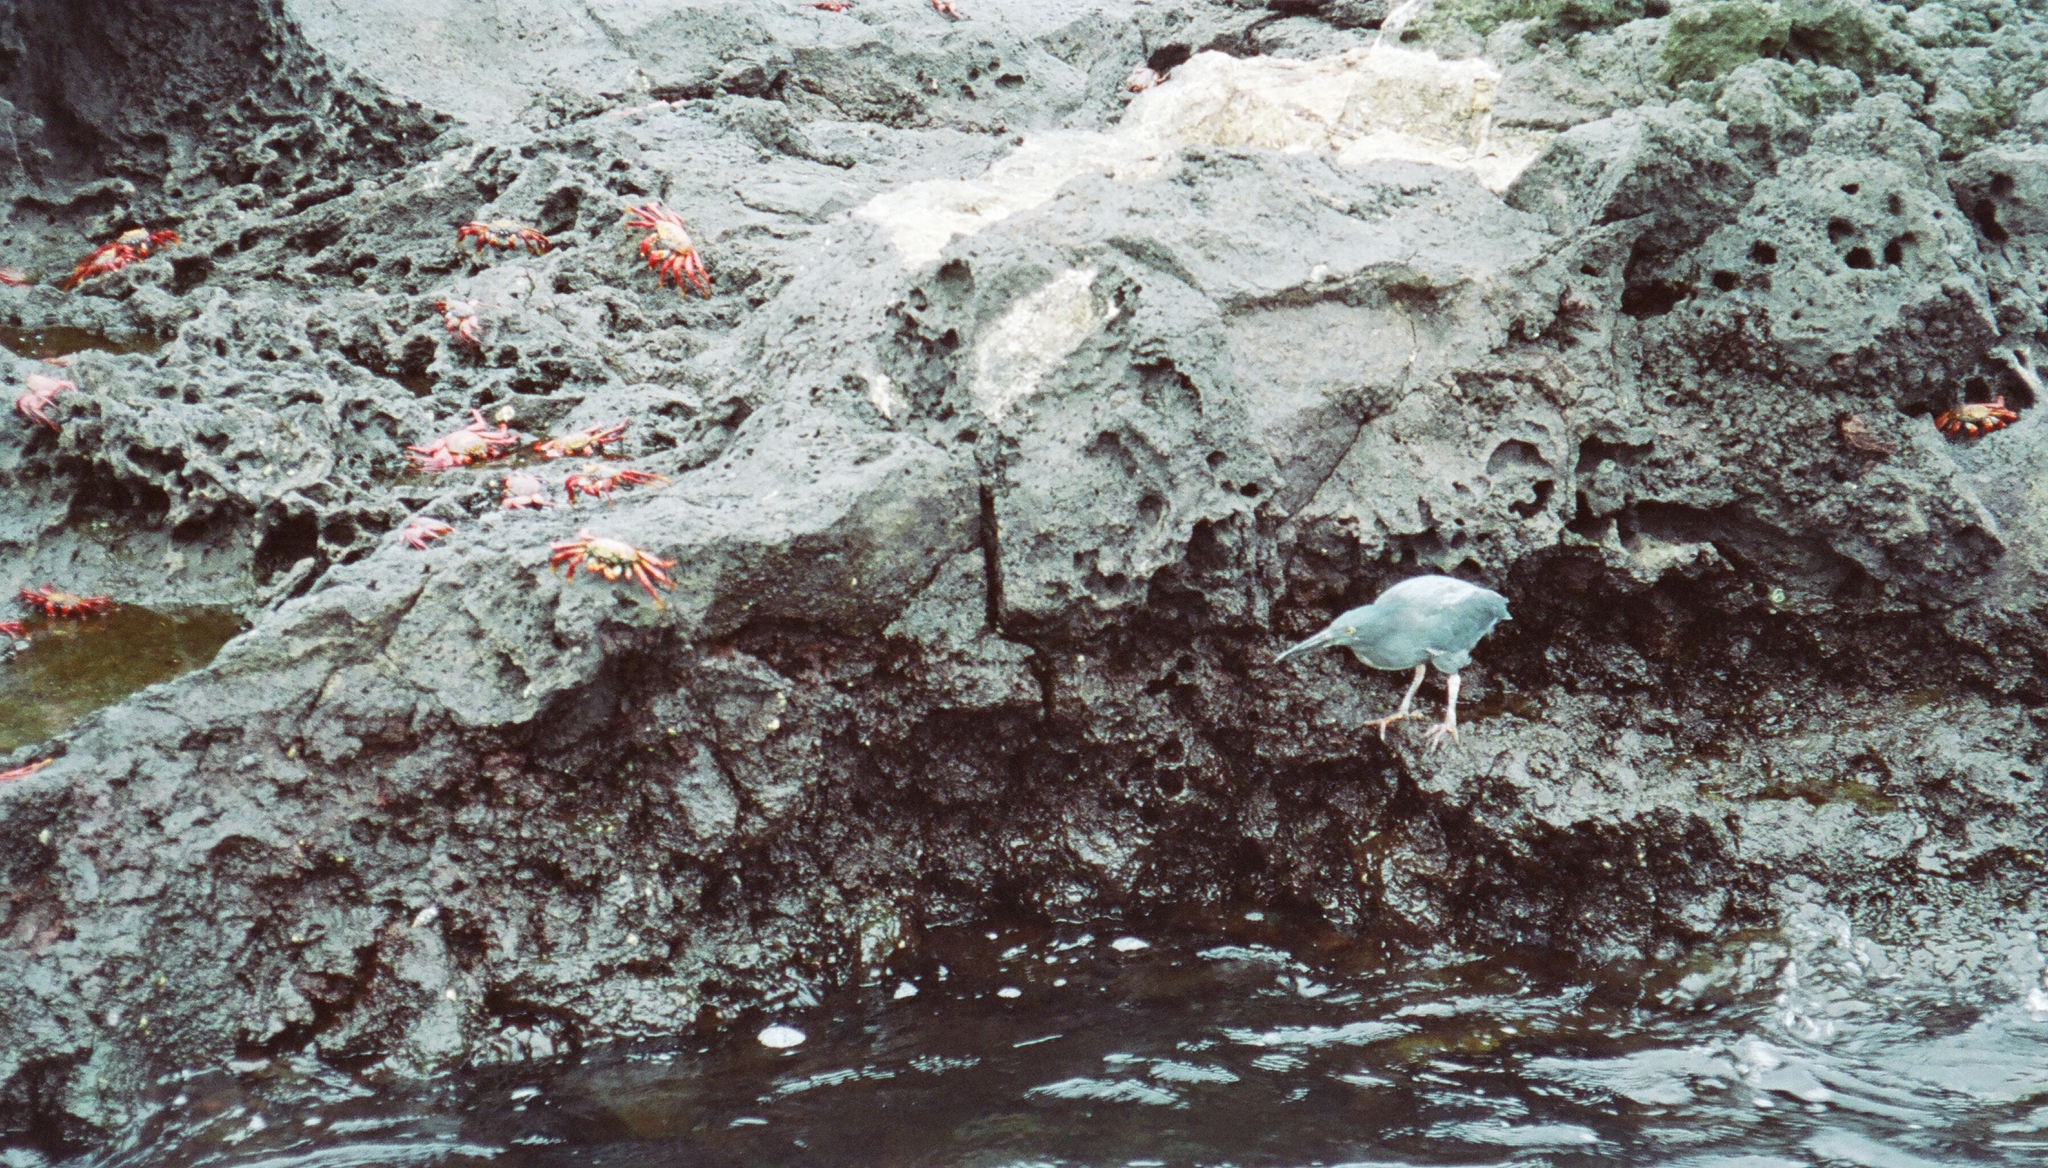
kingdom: Animalia
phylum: Chordata
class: Aves
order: Pelecaniformes
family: Ardeidae
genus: Butorides
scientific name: Butorides striata
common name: Striated heron
